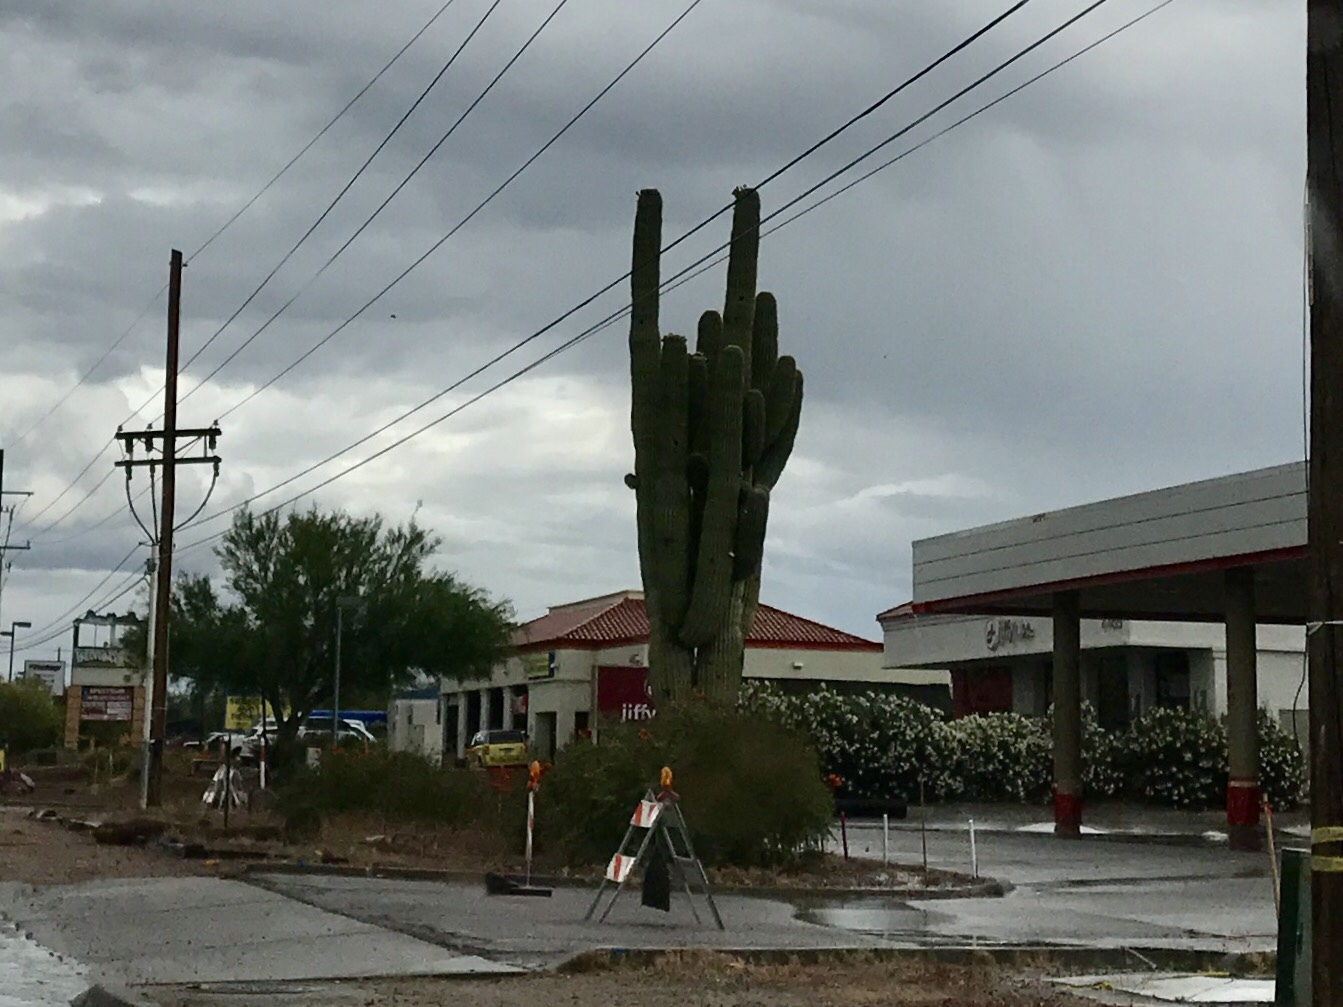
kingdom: Plantae
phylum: Tracheophyta
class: Magnoliopsida
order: Caryophyllales
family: Cactaceae
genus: Carnegiea
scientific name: Carnegiea gigantea
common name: Saguaro
